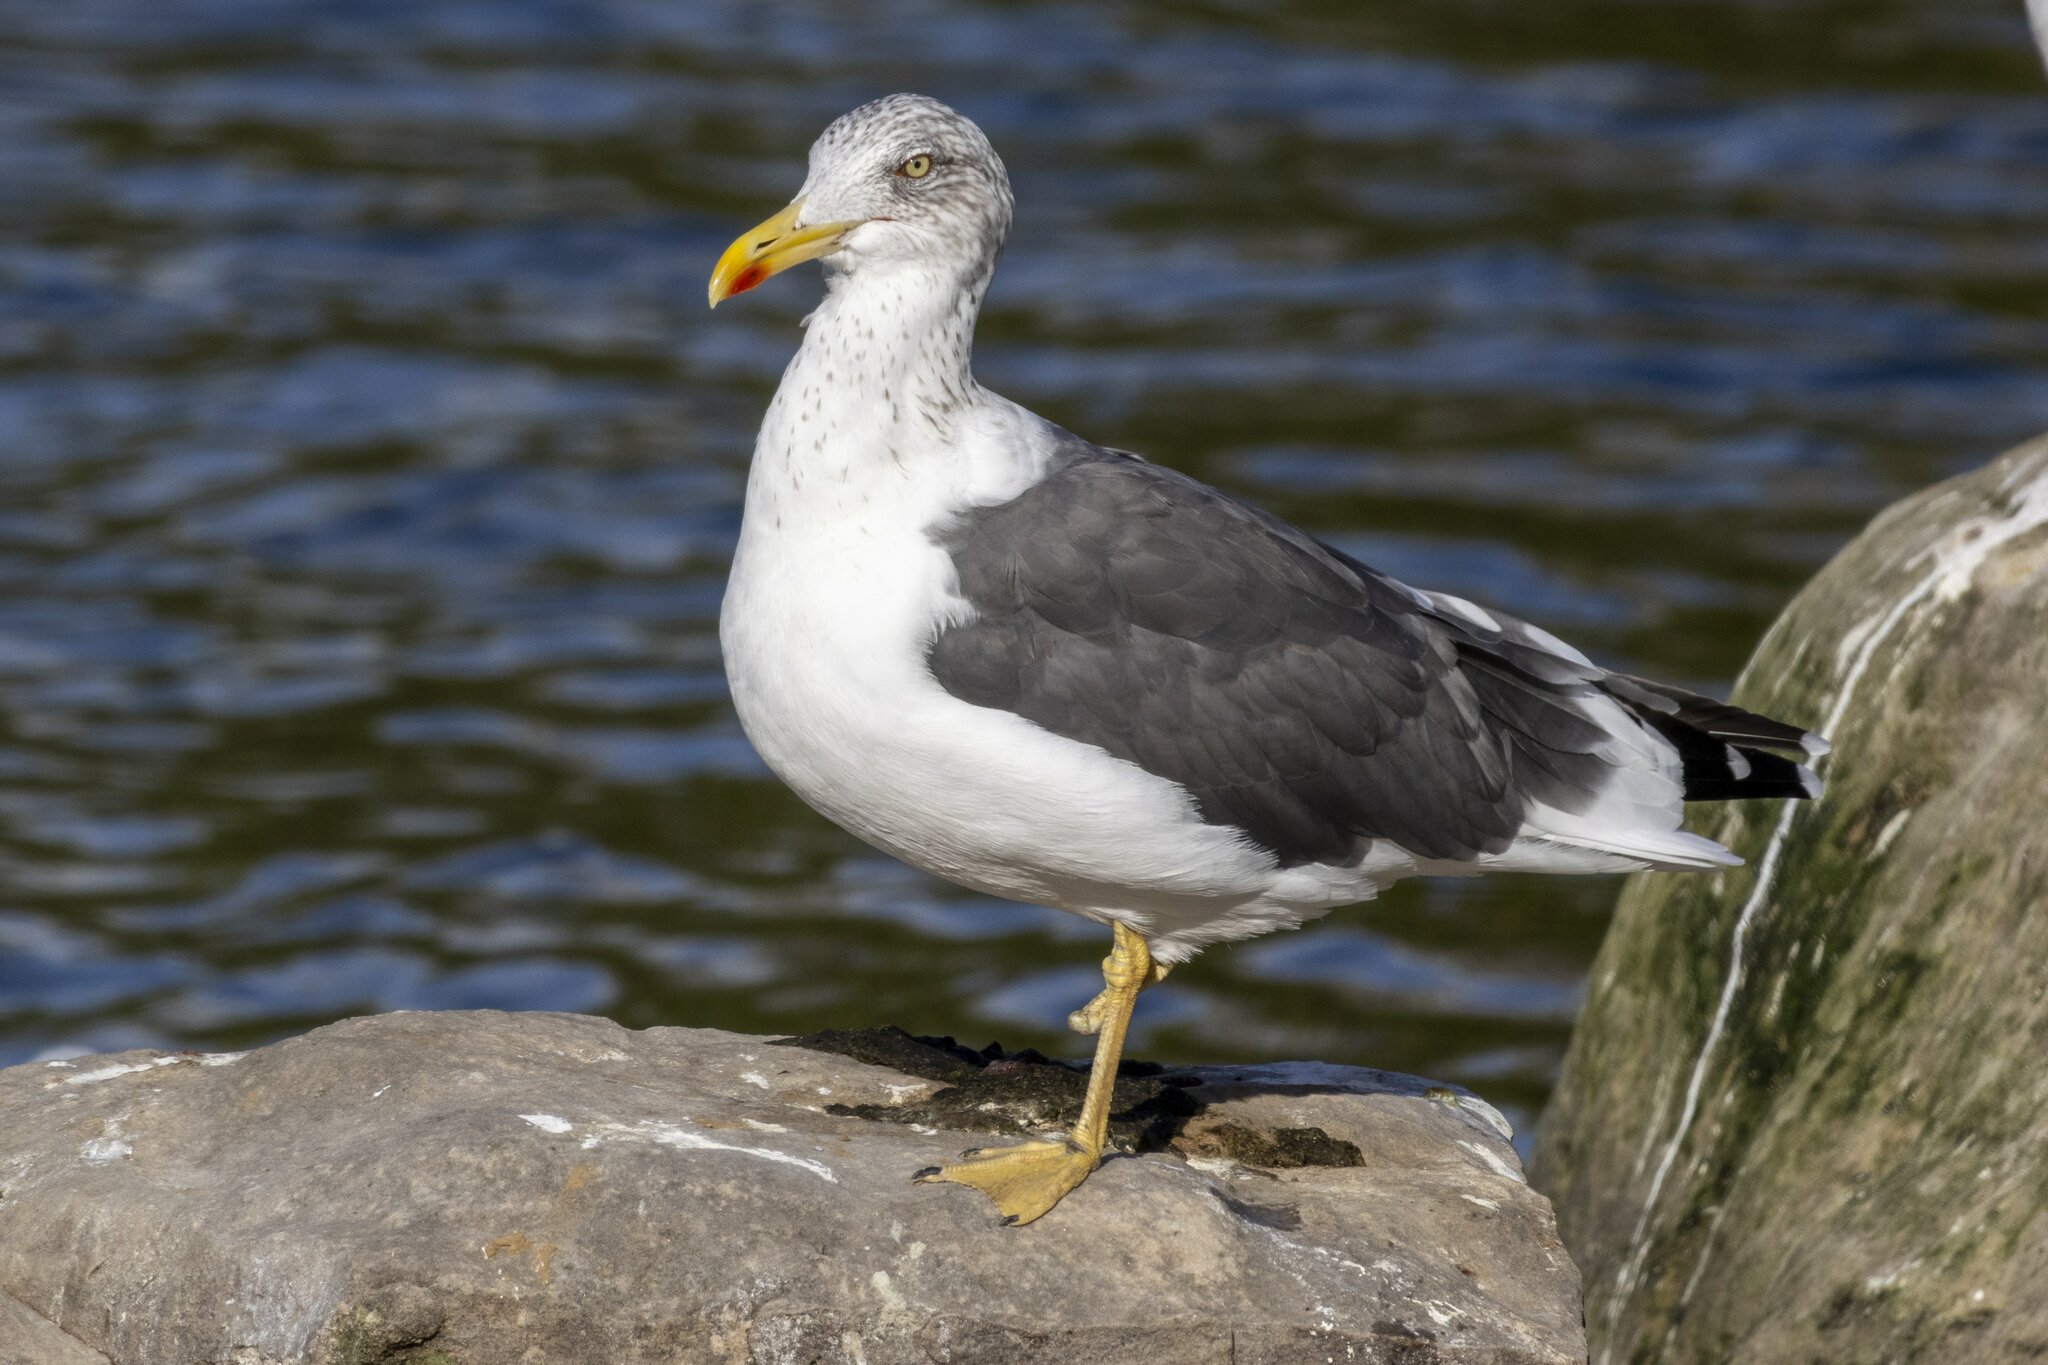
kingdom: Animalia
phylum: Chordata
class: Aves
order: Charadriiformes
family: Laridae
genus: Larus
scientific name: Larus fuscus
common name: Lesser black-backed gull
